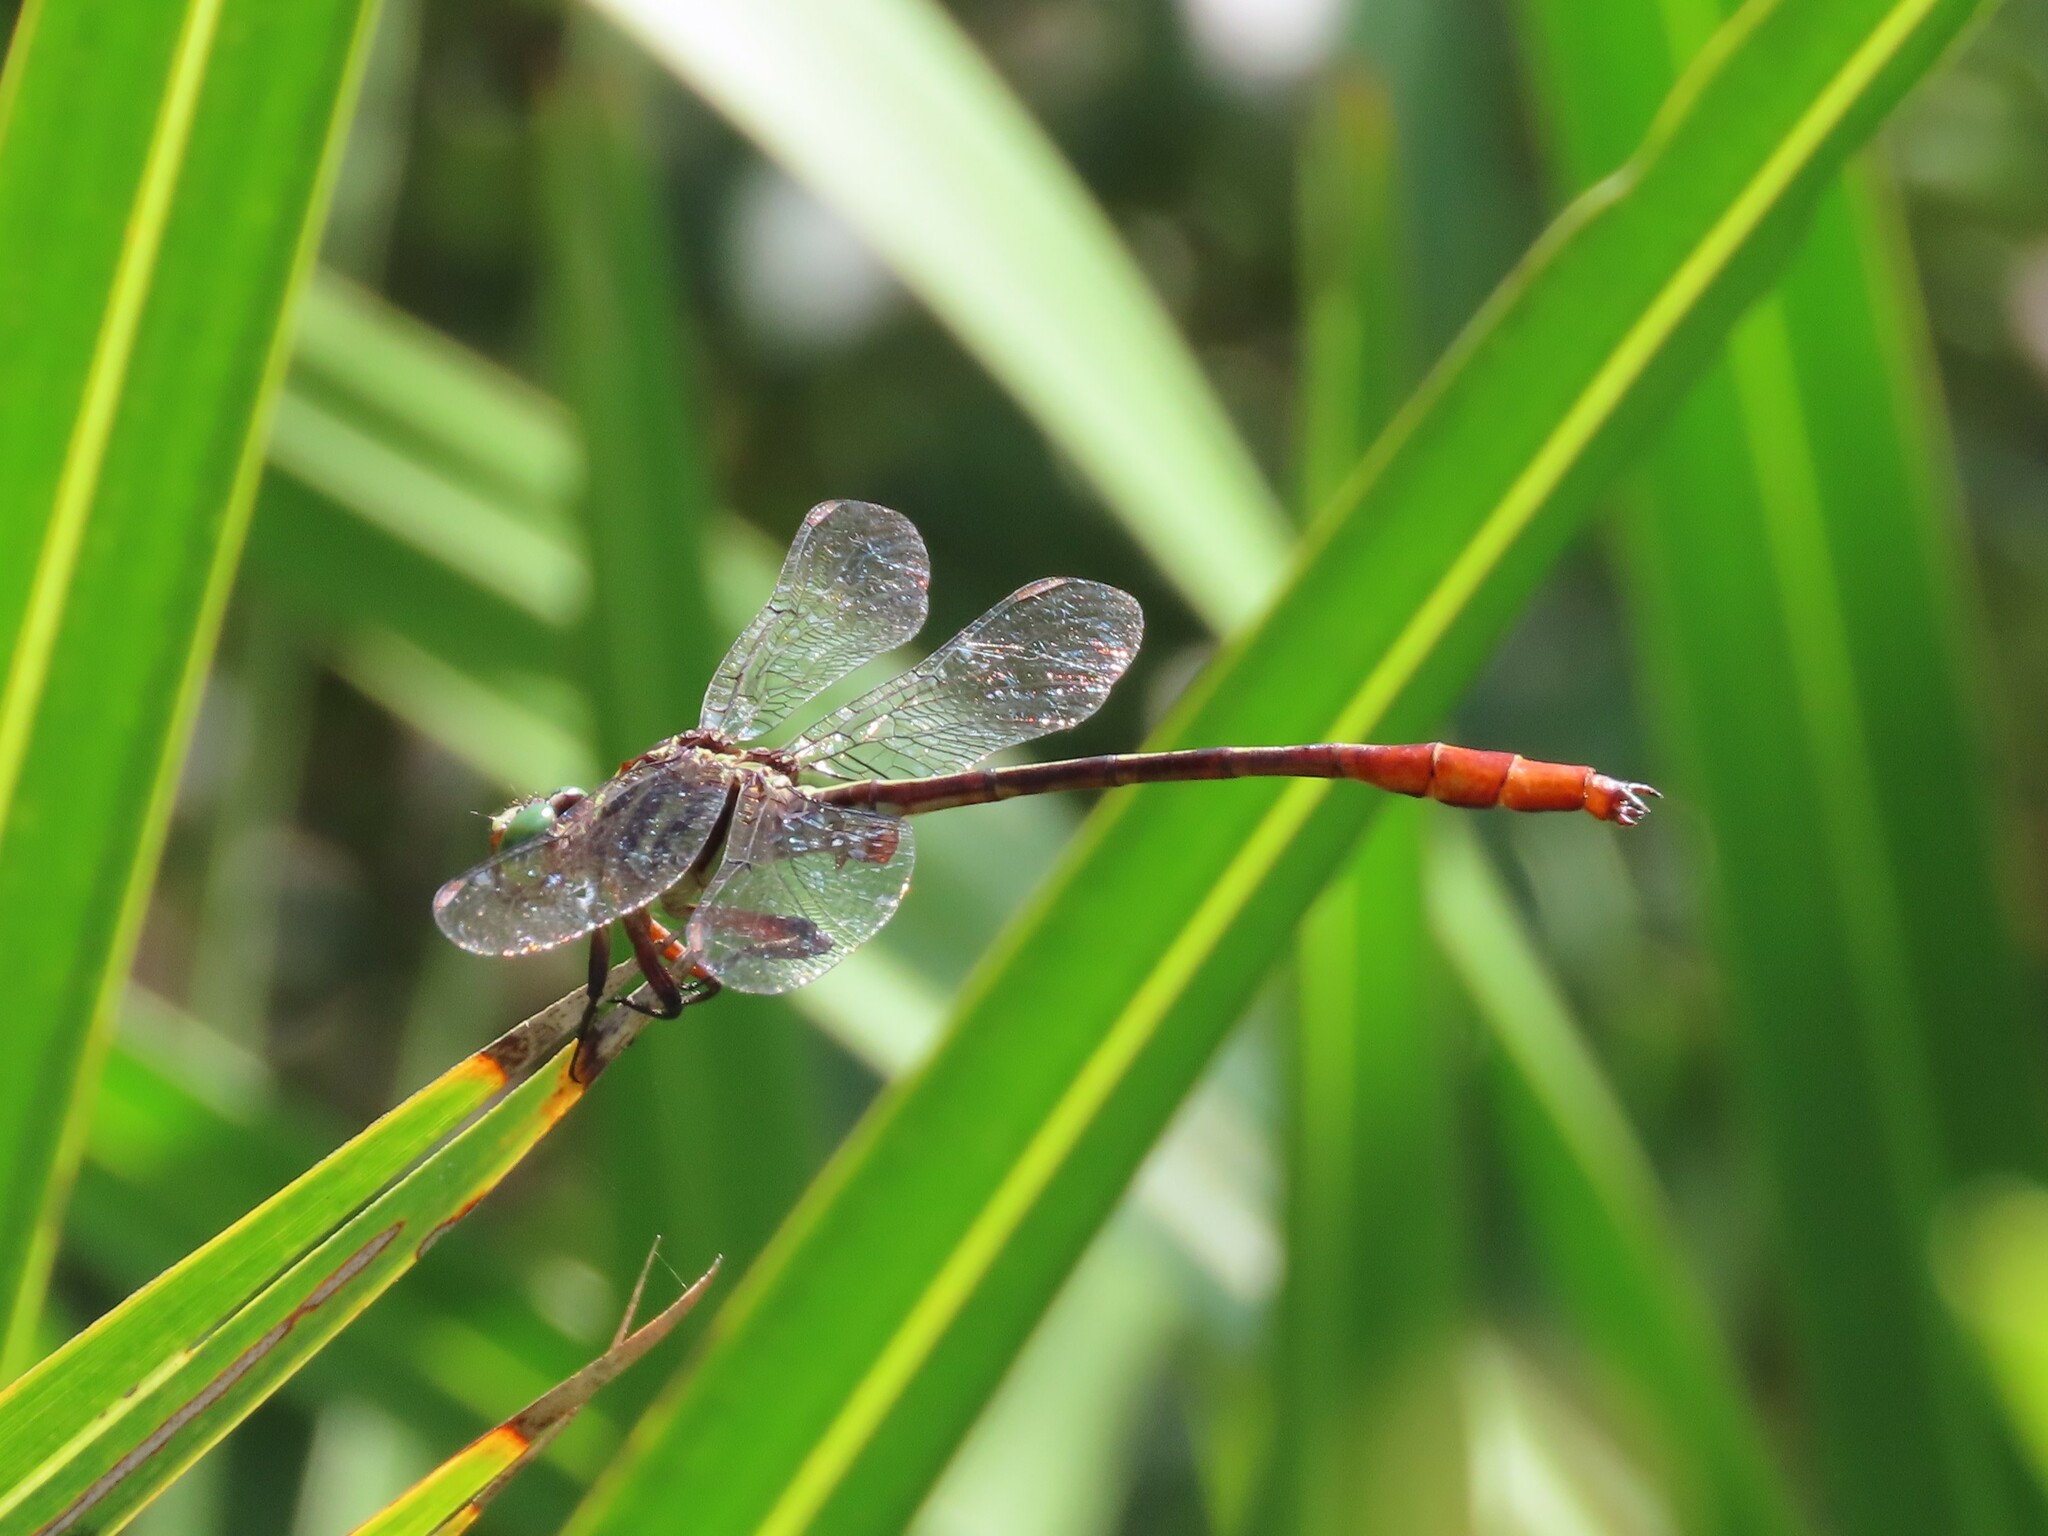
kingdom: Animalia
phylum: Arthropoda
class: Insecta
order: Odonata
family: Gomphidae
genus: Stylurus
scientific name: Stylurus plagiatus
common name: Russet-tipped clubtail
